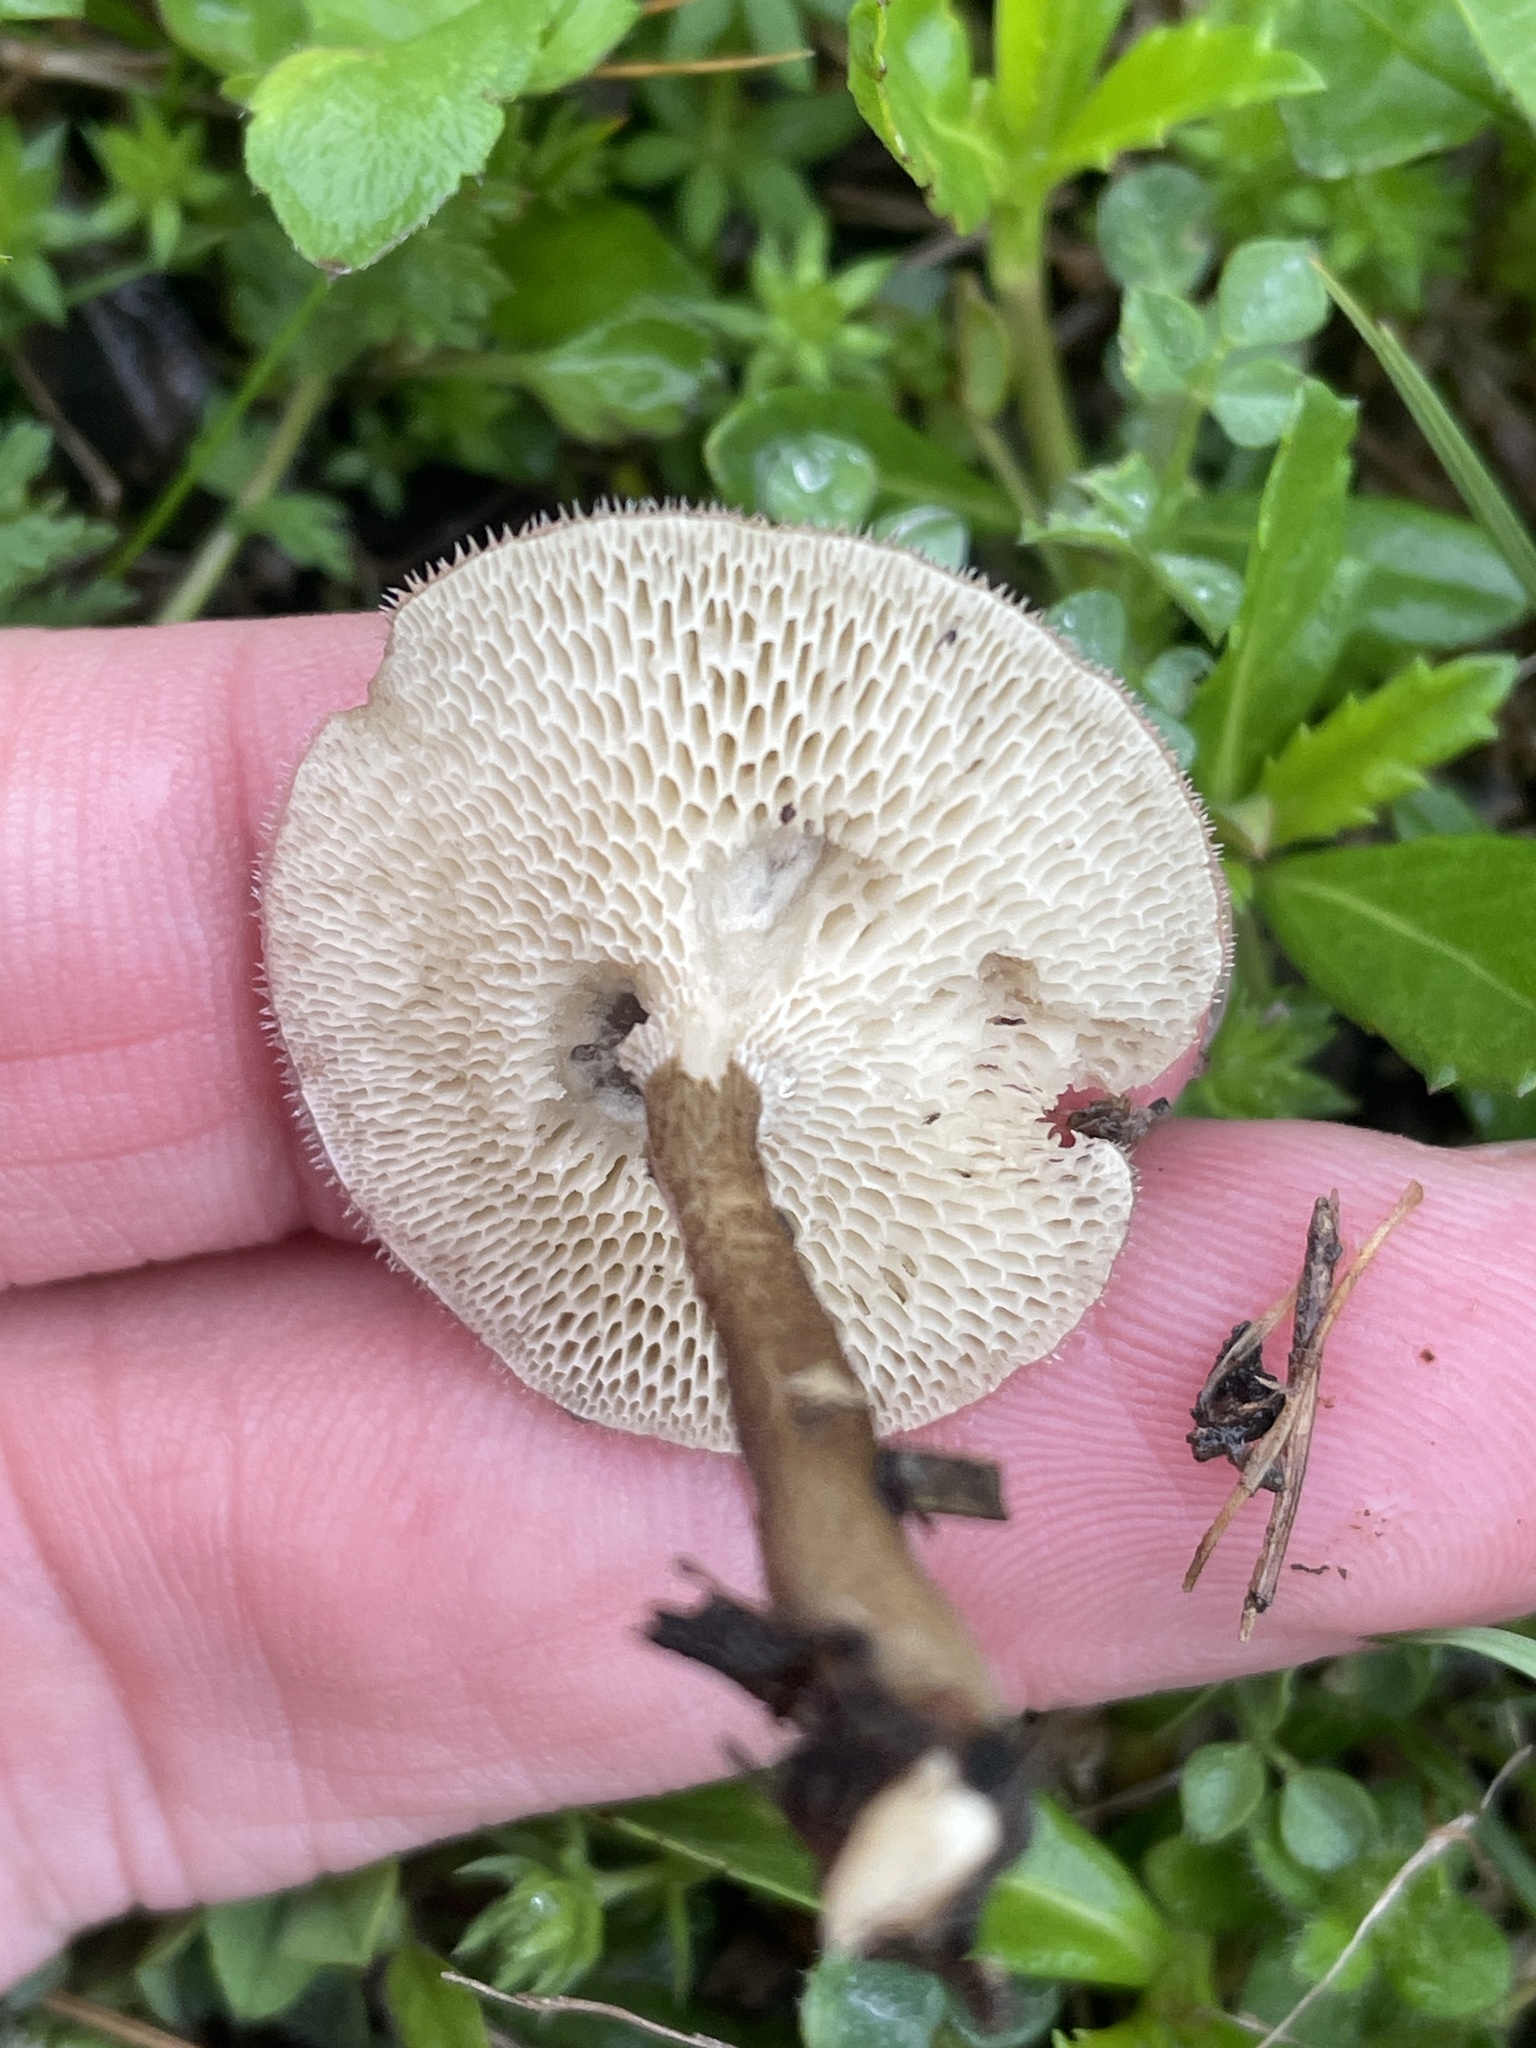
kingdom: Fungi
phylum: Basidiomycota
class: Agaricomycetes
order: Polyporales
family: Polyporaceae
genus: Lentinus
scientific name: Lentinus arcularius
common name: Spring polypore
